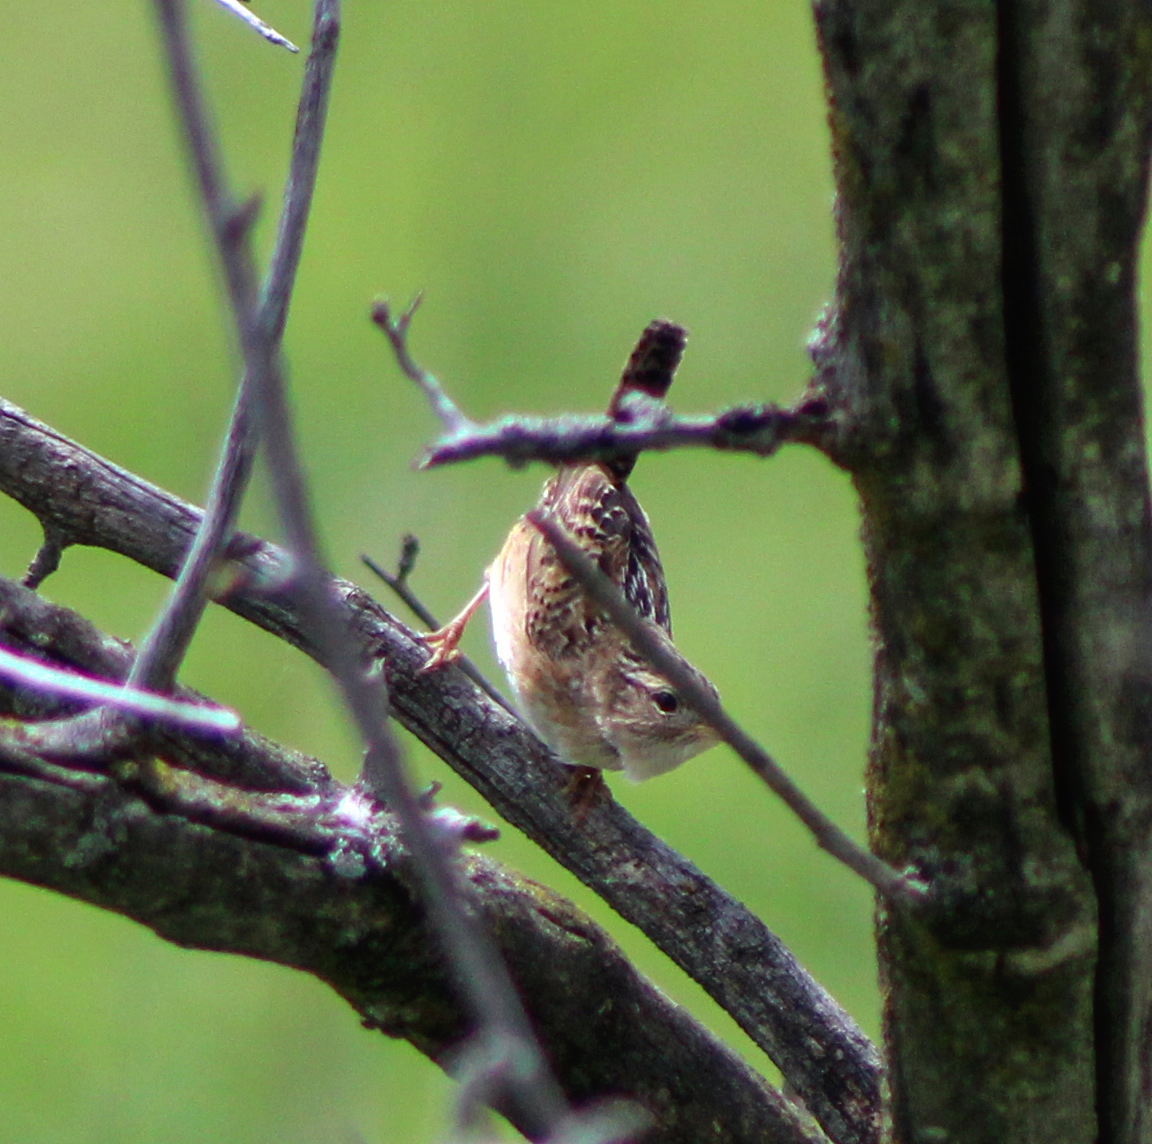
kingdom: Animalia
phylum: Chordata
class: Aves
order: Passeriformes
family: Troglodytidae
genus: Cistothorus
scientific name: Cistothorus platensis
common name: Sedge wren
